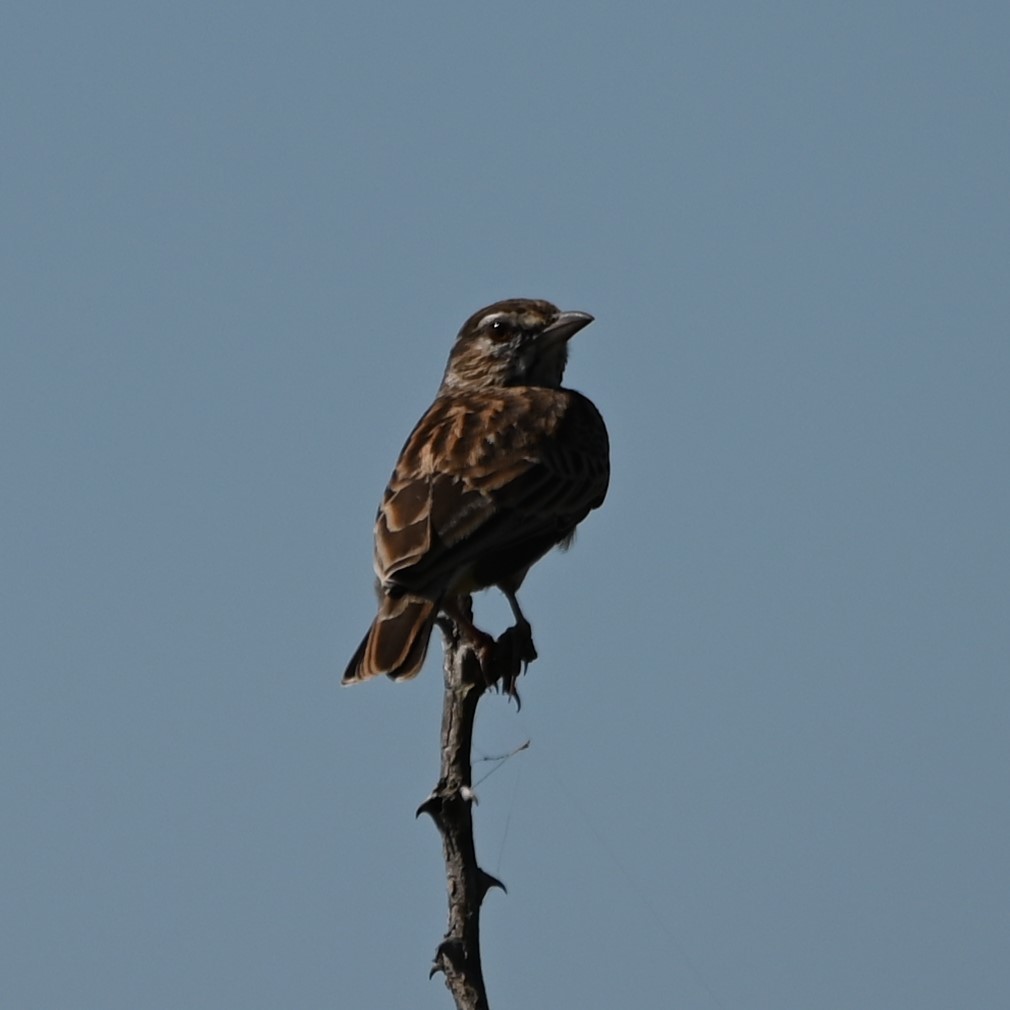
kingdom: Animalia
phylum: Chordata
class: Aves
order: Passeriformes
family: Alaudidae
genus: Calendulauda
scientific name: Calendulauda sabota
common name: Sabota lark
